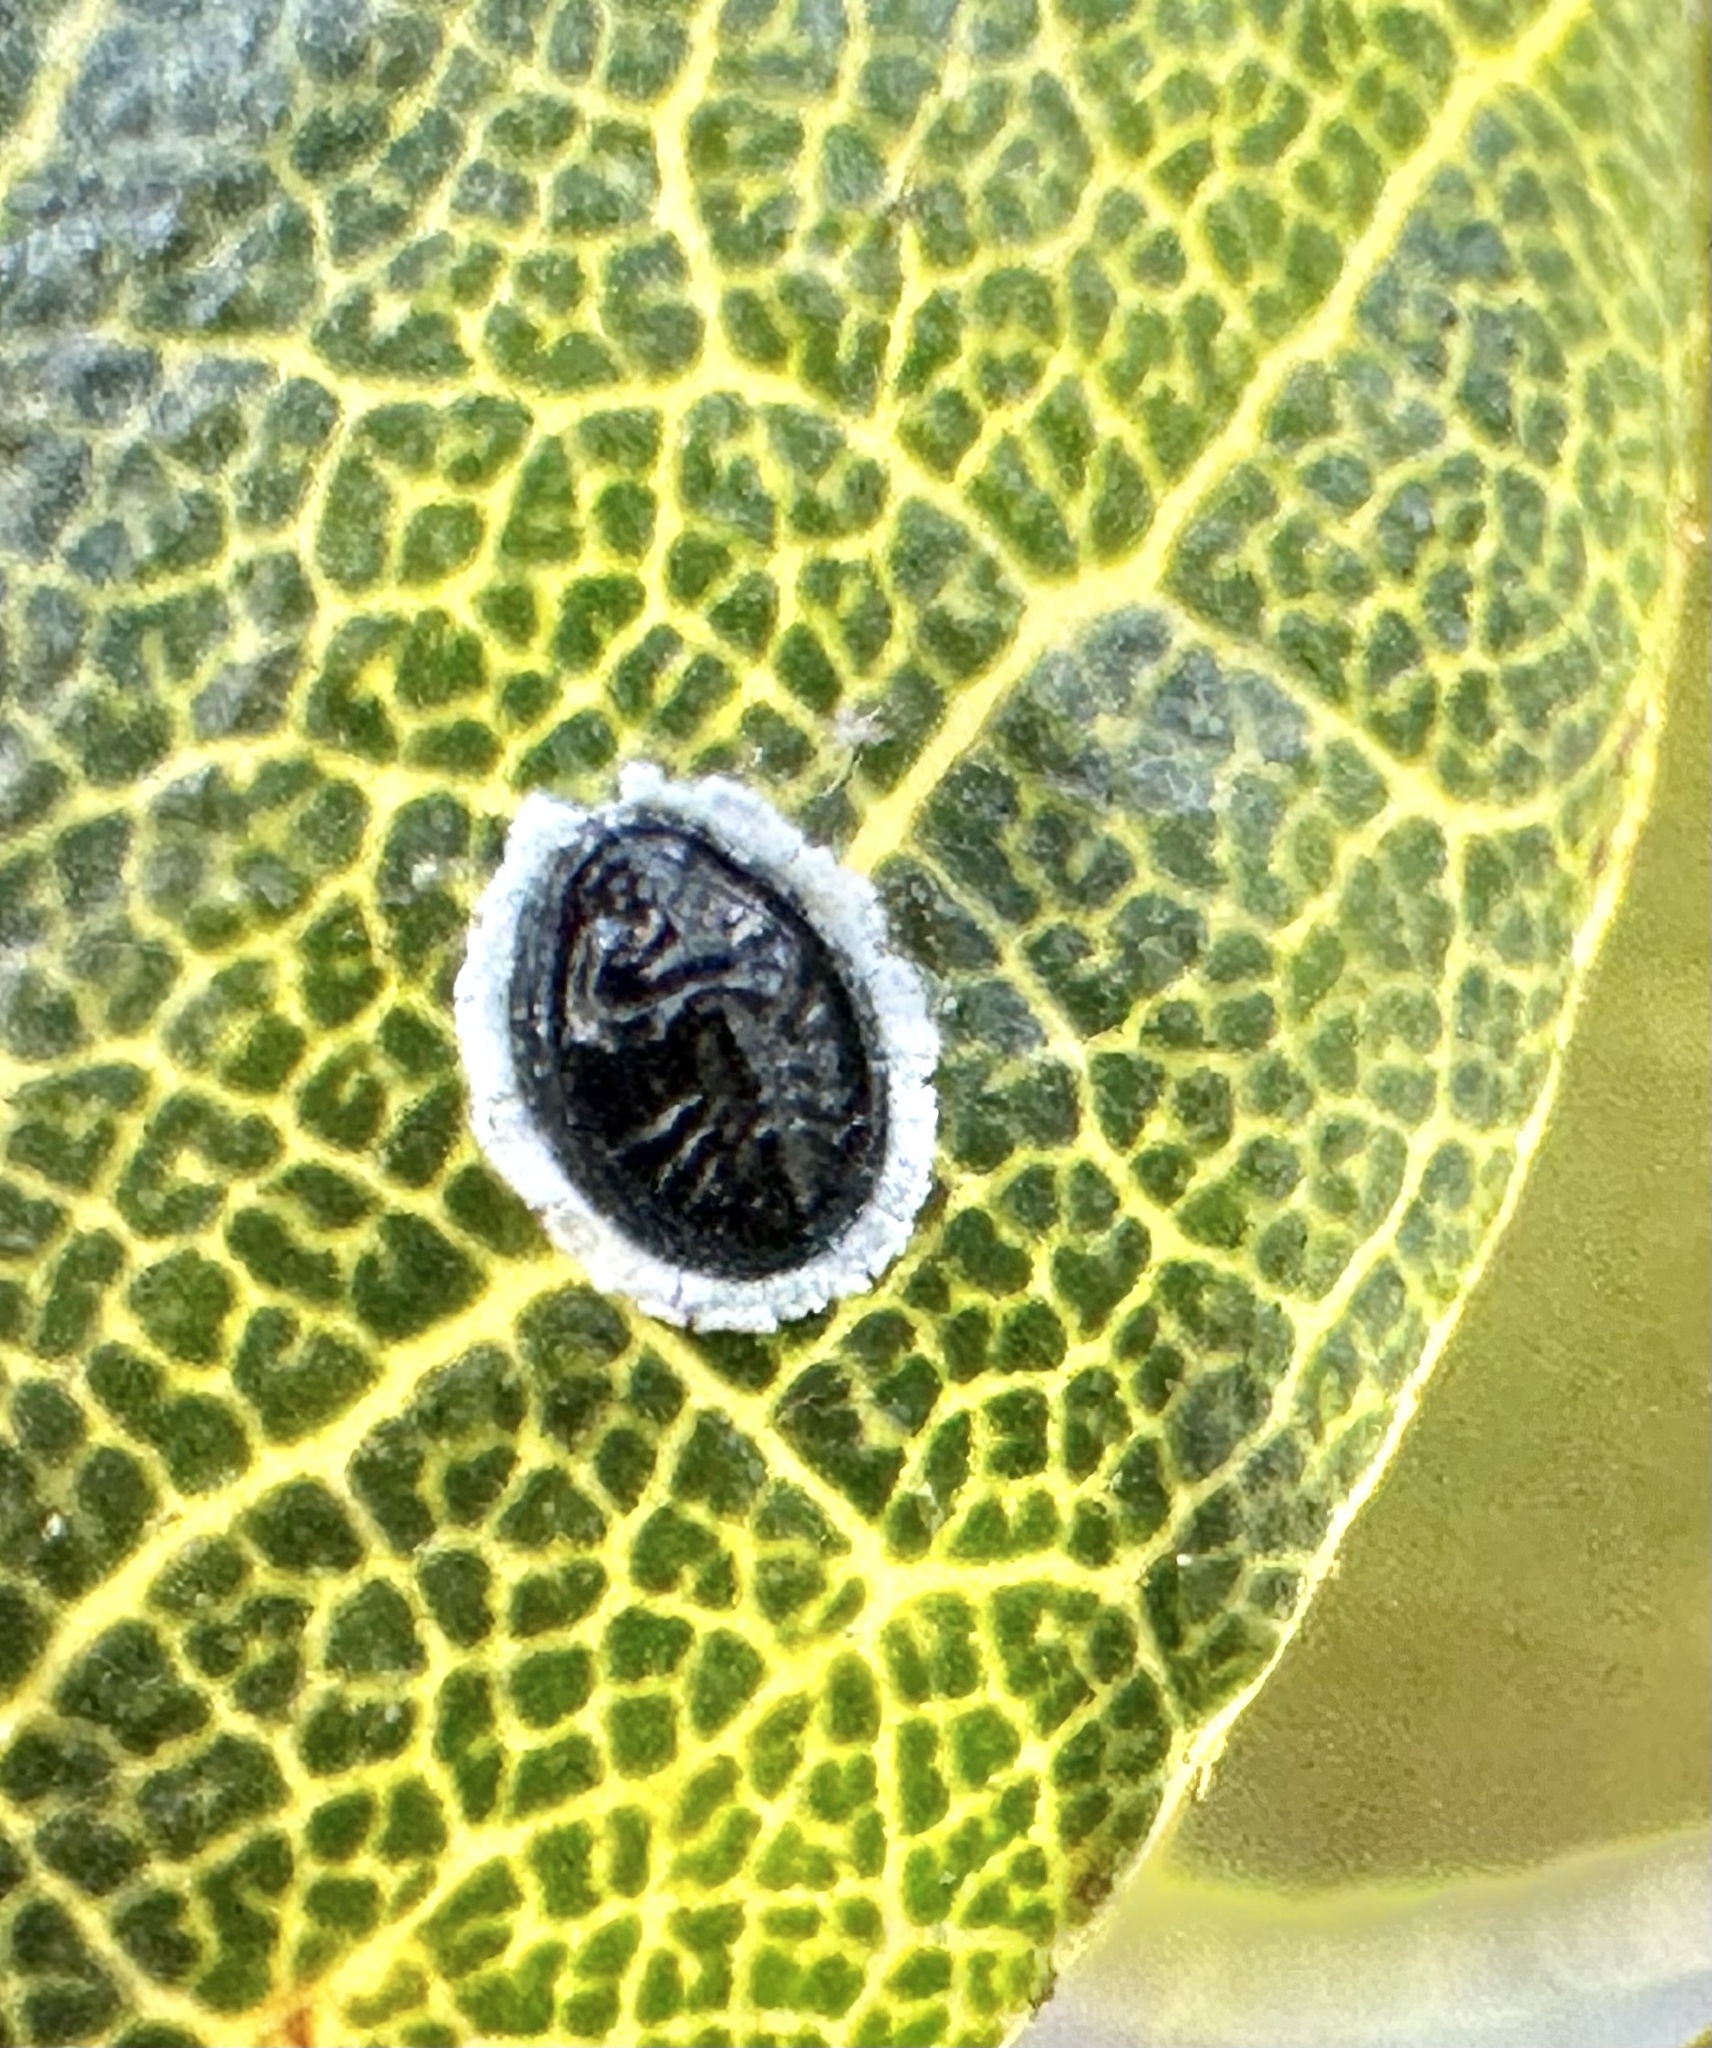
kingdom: Animalia
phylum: Arthropoda
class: Insecta
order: Hemiptera
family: Aleyrodidae
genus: Tetraleurodes
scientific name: Tetraleurodes perileuca
